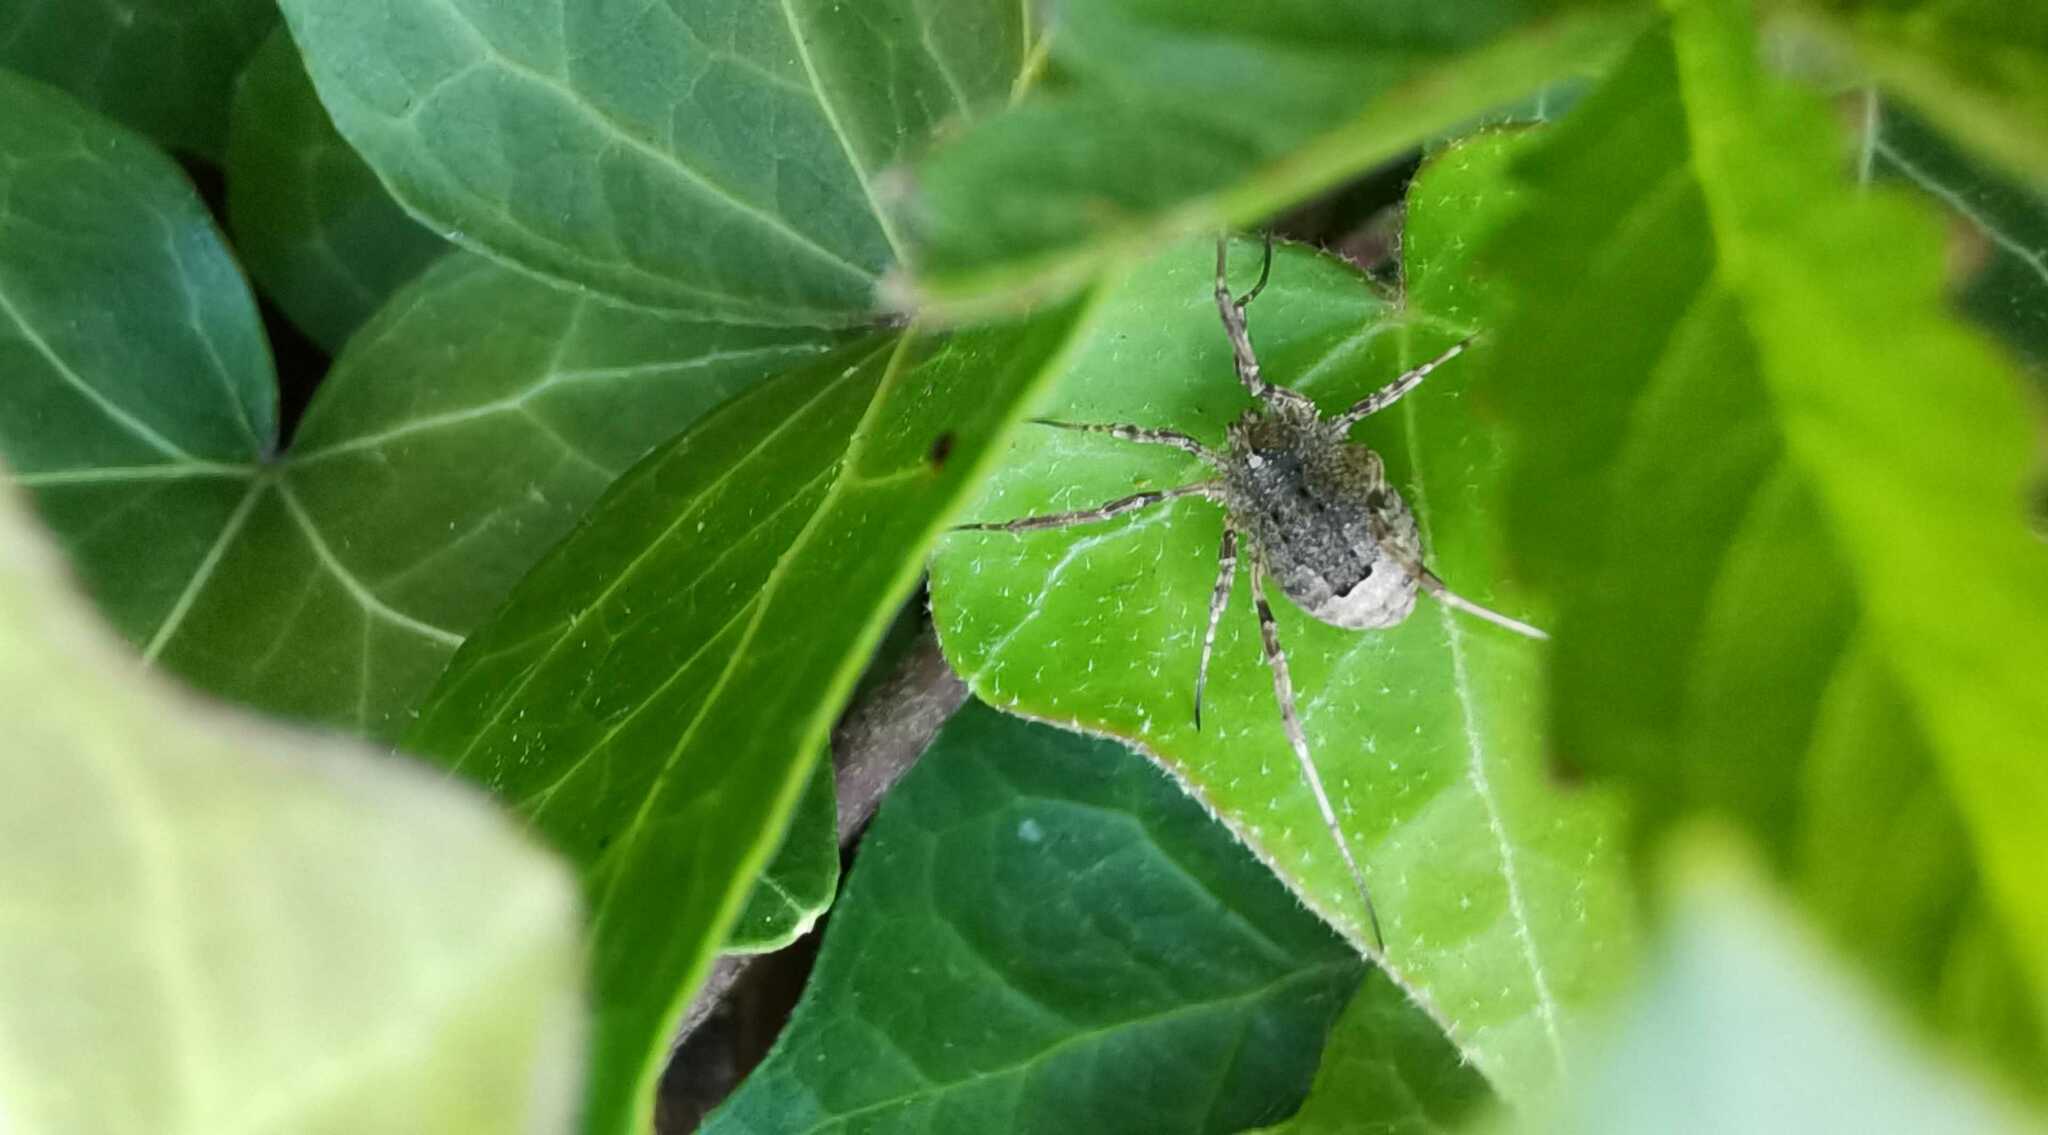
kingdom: Animalia
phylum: Arthropoda
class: Arachnida
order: Opiliones
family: Phalangiidae
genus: Odiellus
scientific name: Odiellus spinosus
